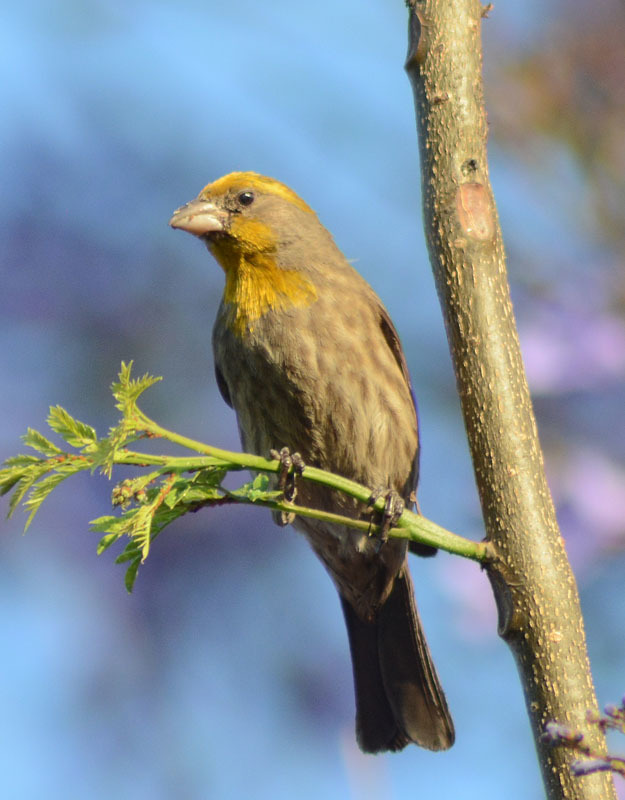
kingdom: Animalia
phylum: Chordata
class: Aves
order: Passeriformes
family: Fringillidae
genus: Haemorhous
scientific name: Haemorhous mexicanus
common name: House finch
